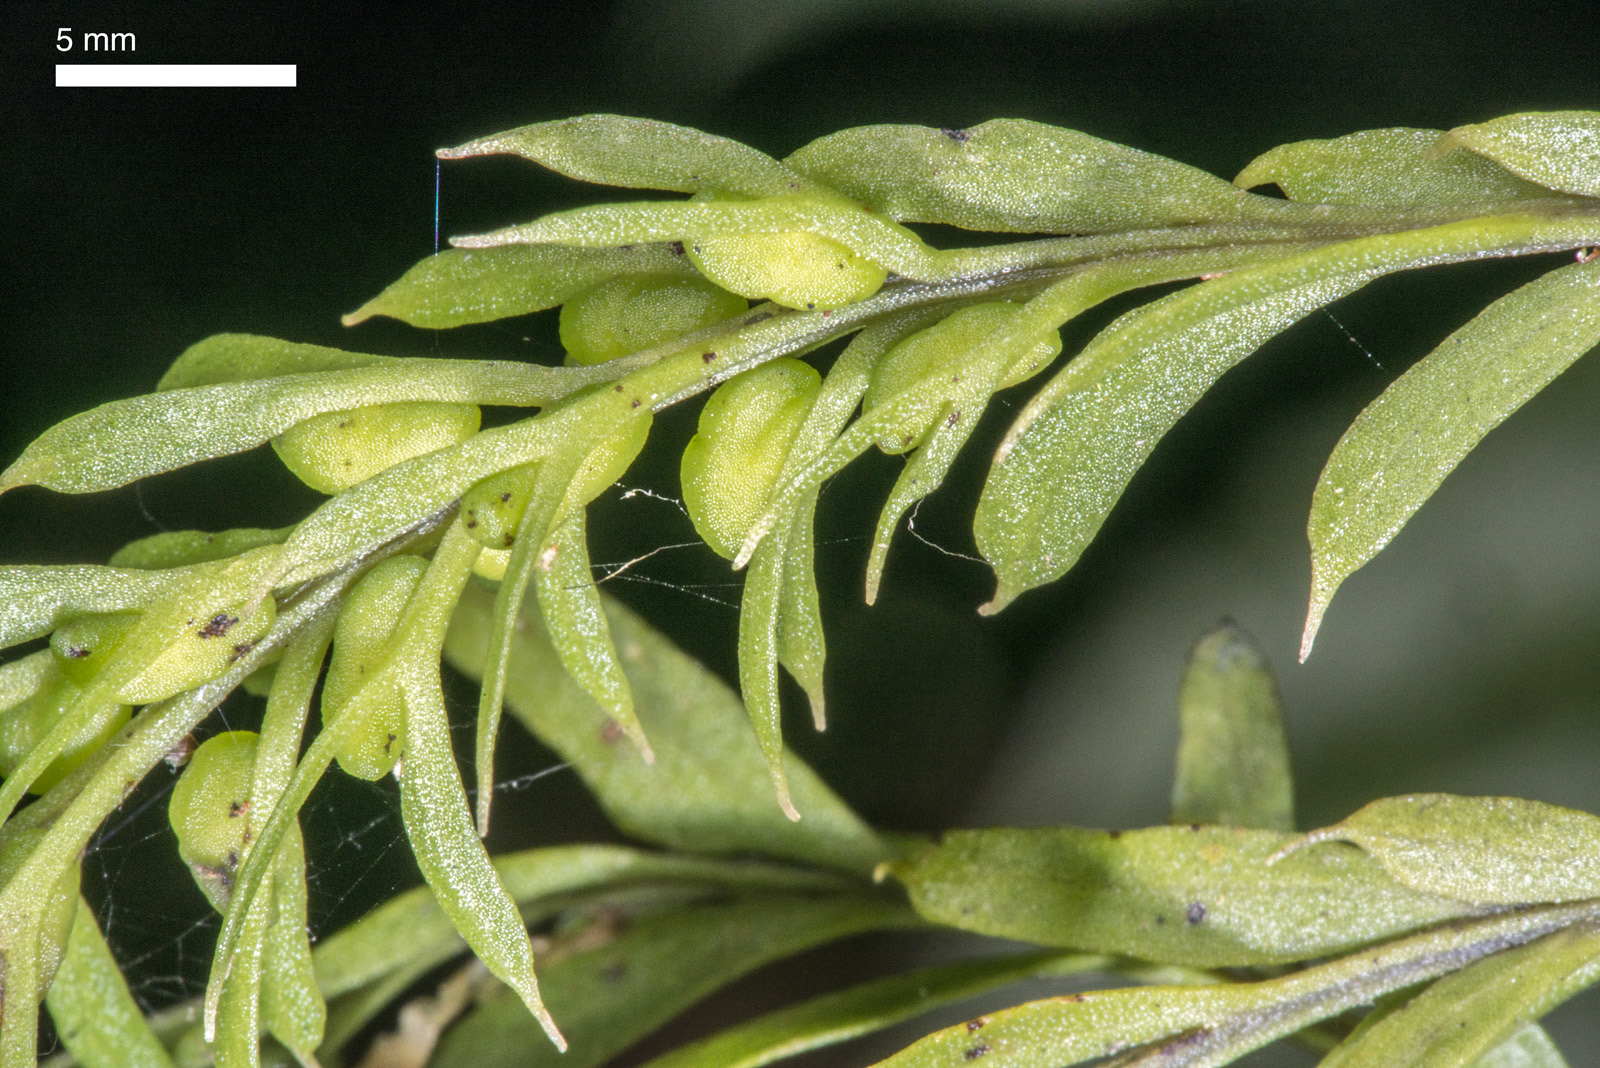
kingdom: Plantae
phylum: Tracheophyta
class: Polypodiopsida
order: Psilotales
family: Psilotaceae
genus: Tmesipteris
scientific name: Tmesipteris elongata
